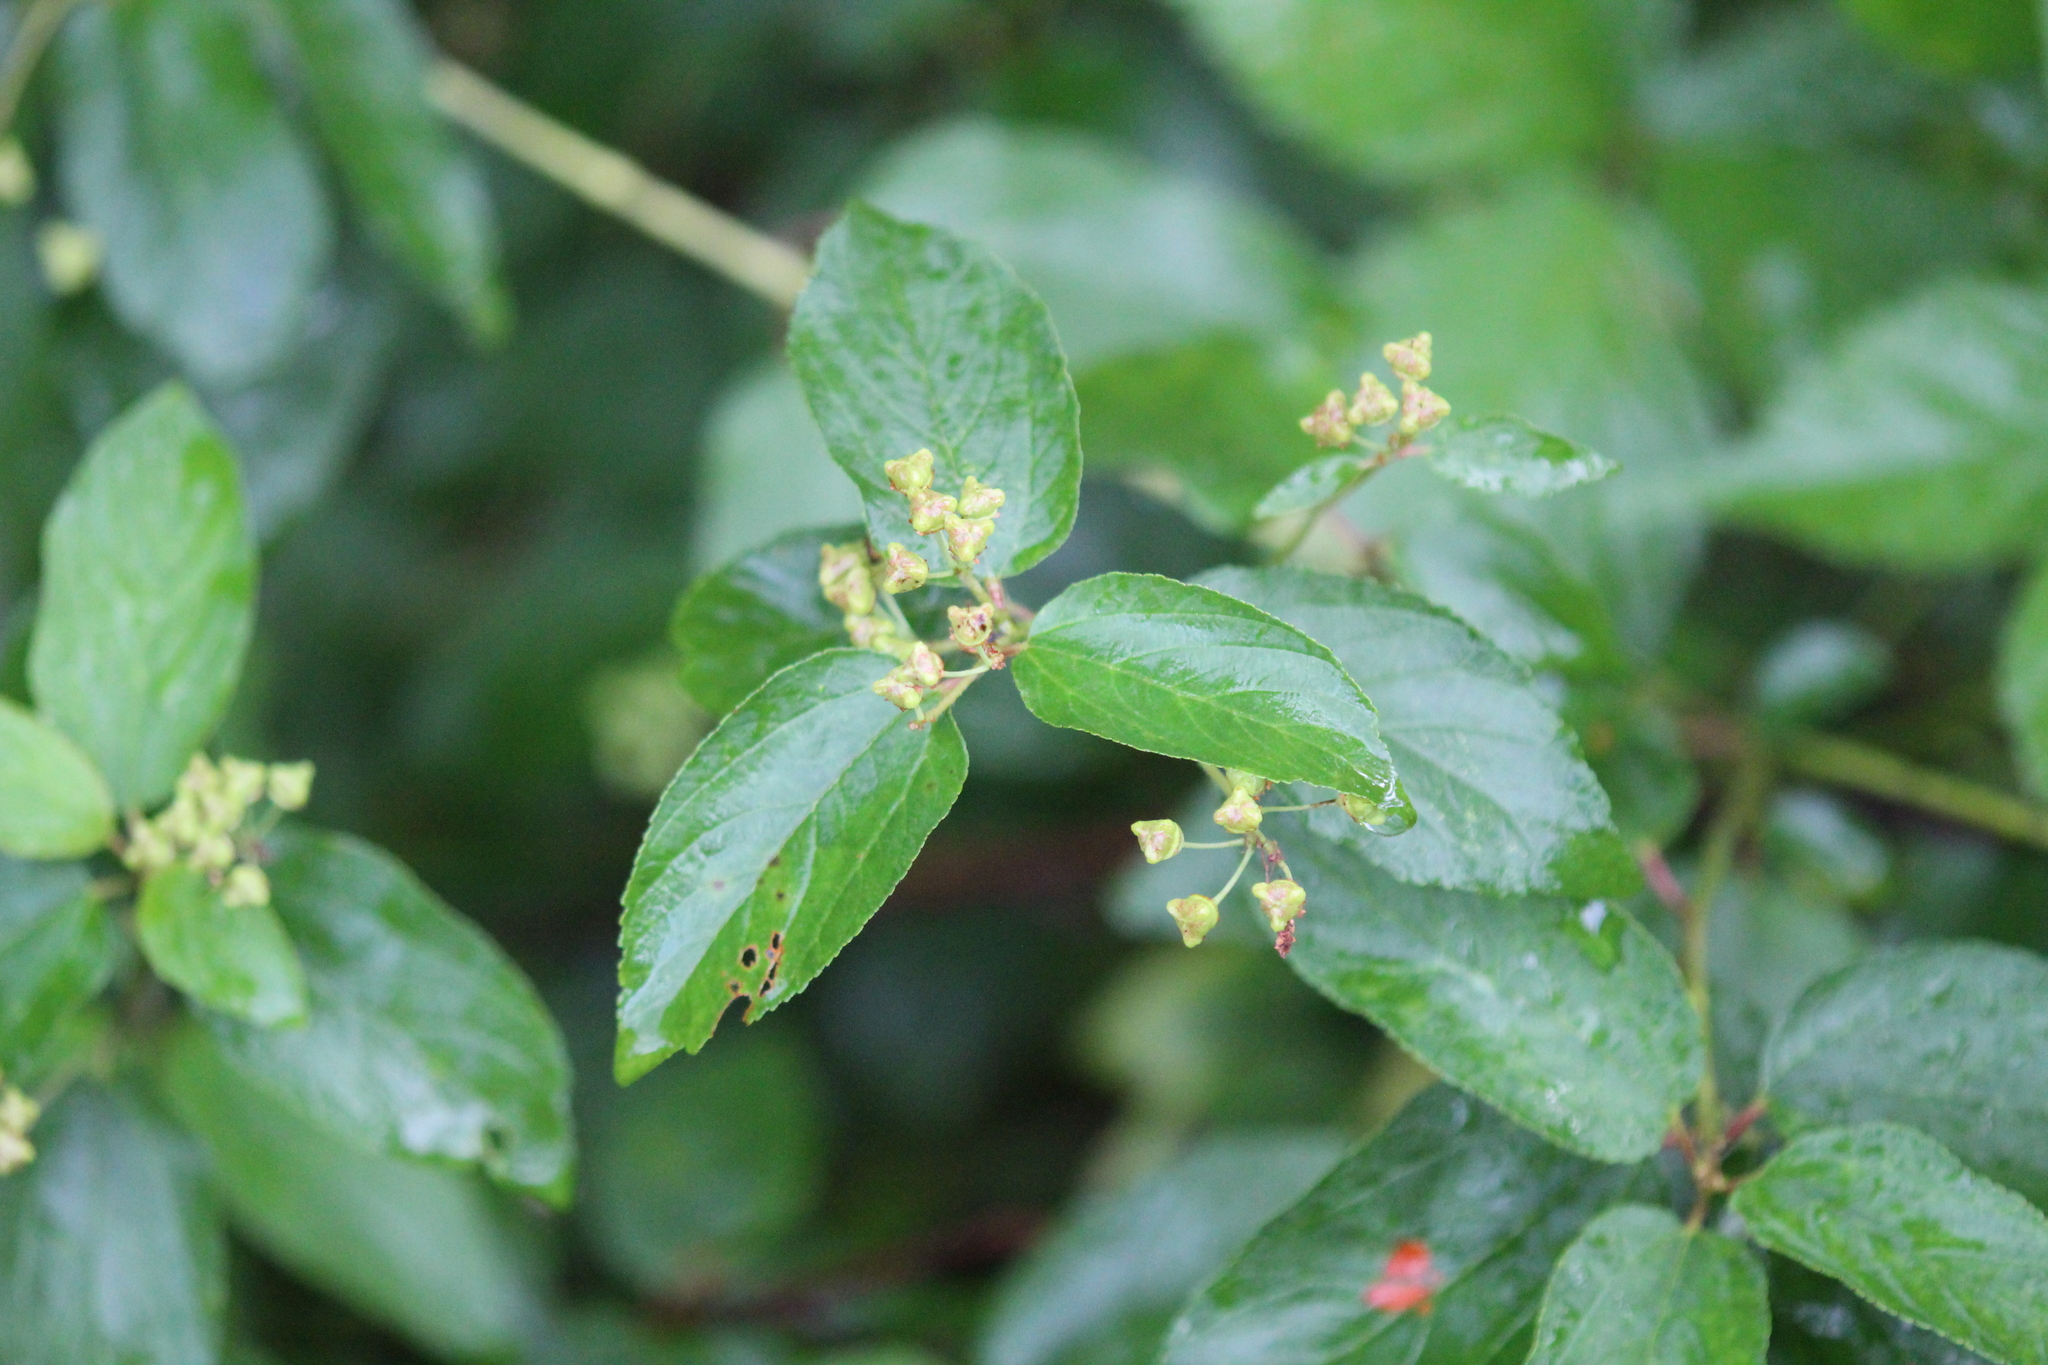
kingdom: Plantae
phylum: Tracheophyta
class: Magnoliopsida
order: Rosales
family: Rhamnaceae
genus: Ceanothus
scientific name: Ceanothus americanus
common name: Redroot
